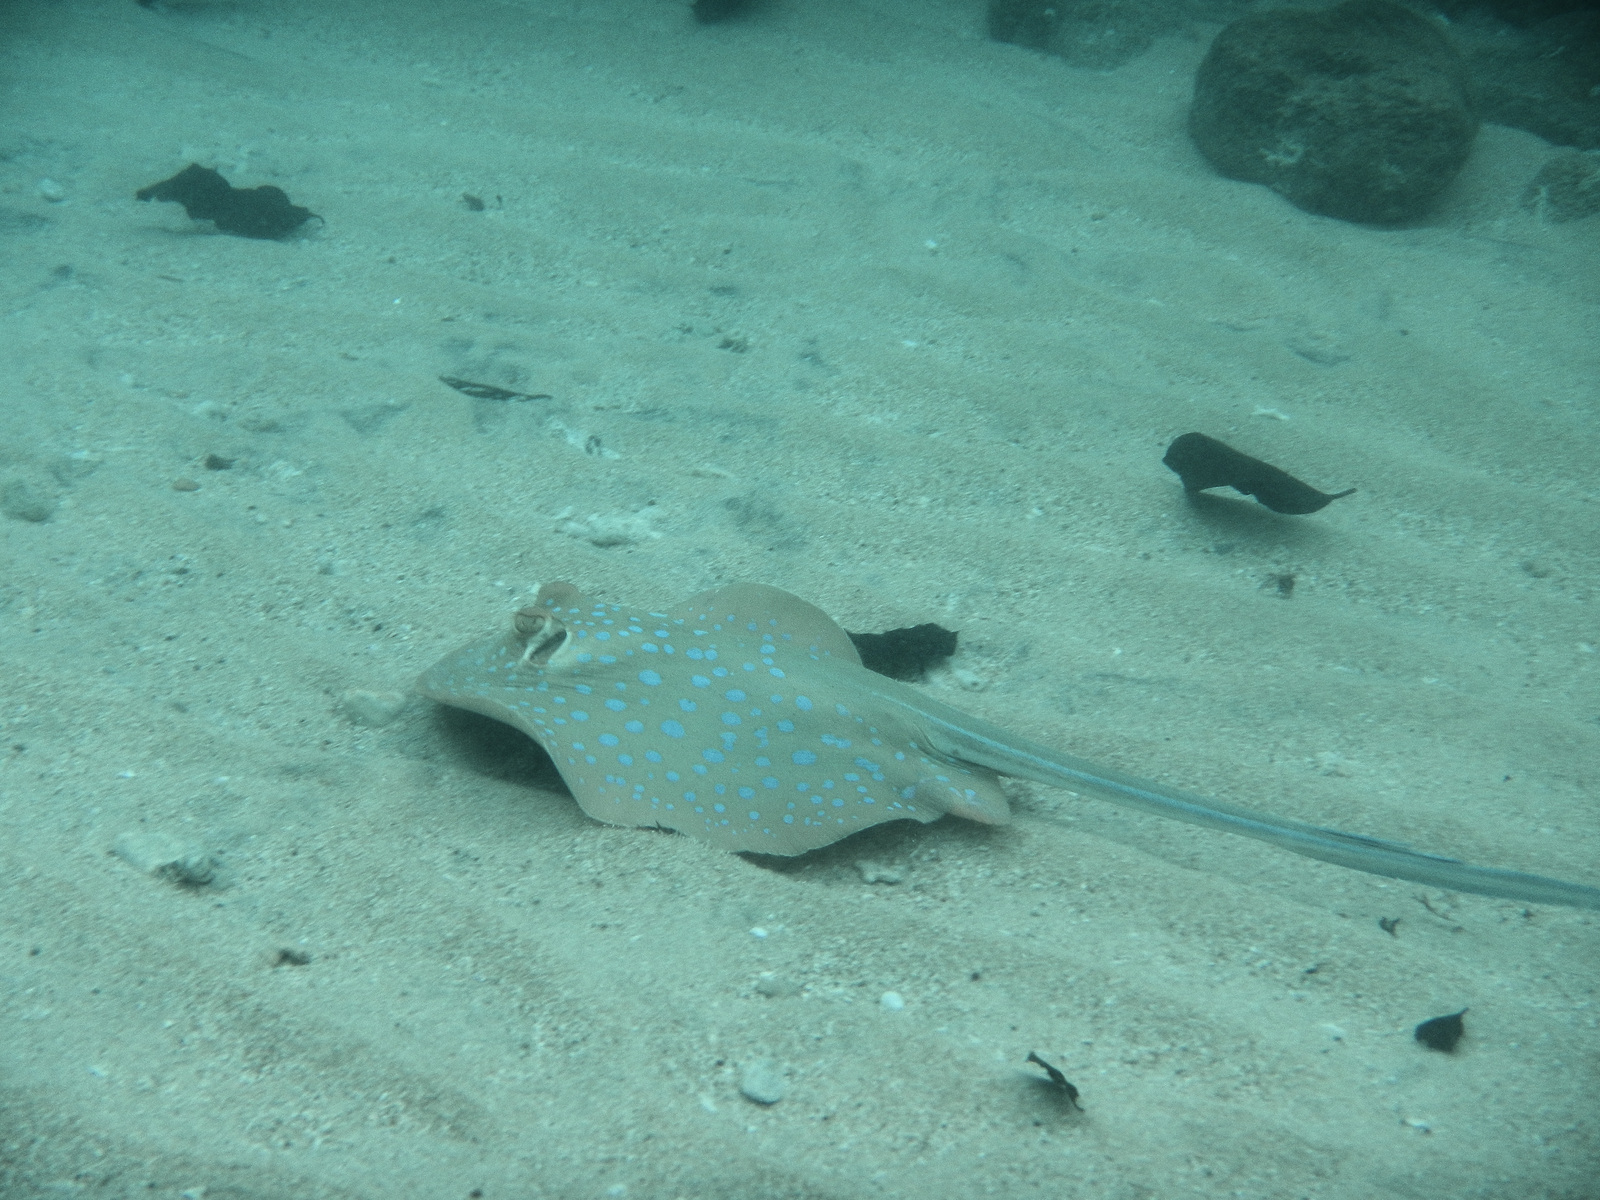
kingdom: Animalia
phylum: Chordata
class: Elasmobranchii
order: Myliobatiformes
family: Dasyatidae
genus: Taeniura
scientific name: Taeniura lymma
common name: Bluespotted ribbontail ray
